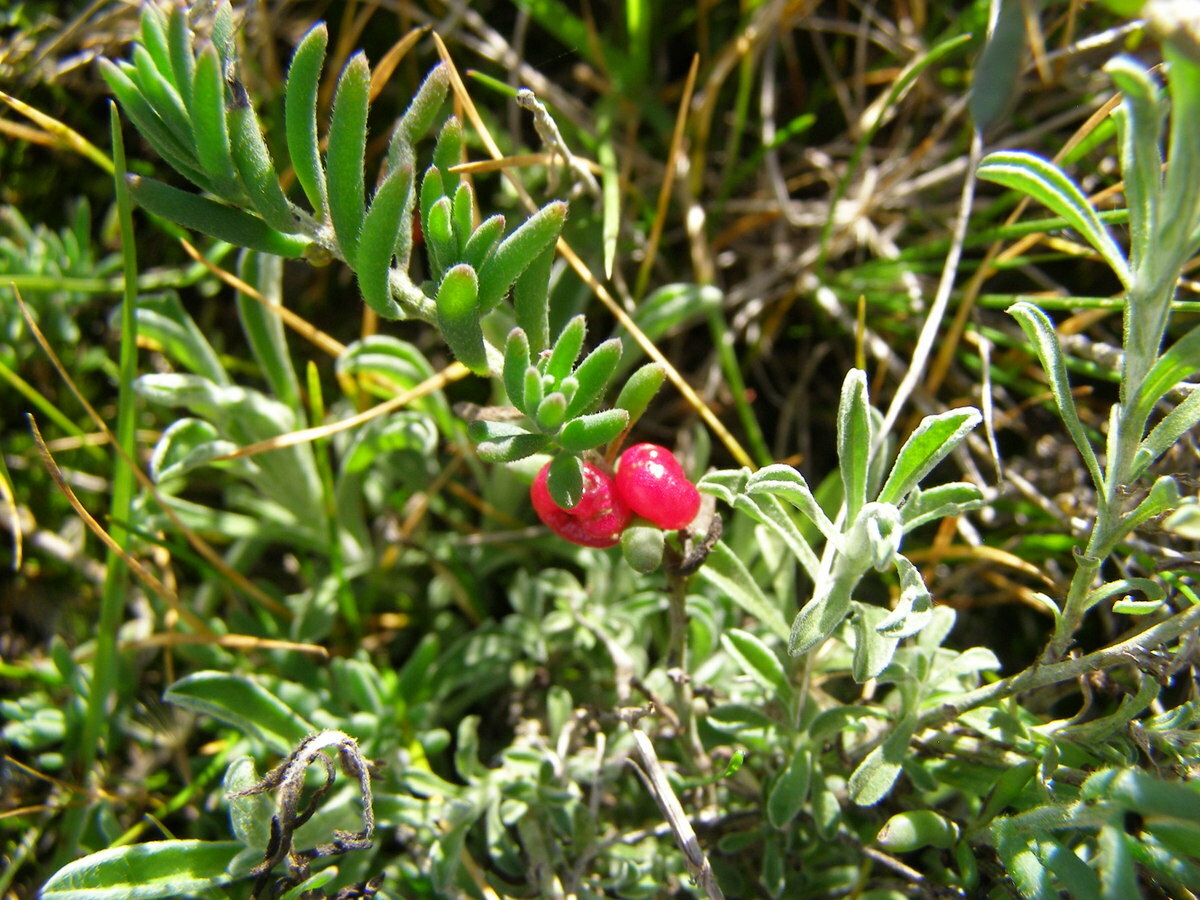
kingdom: Plantae
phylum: Tracheophyta
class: Magnoliopsida
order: Caryophyllales
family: Amaranthaceae
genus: Enchylaena
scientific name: Enchylaena tomentosa
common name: Ruby saltbush
